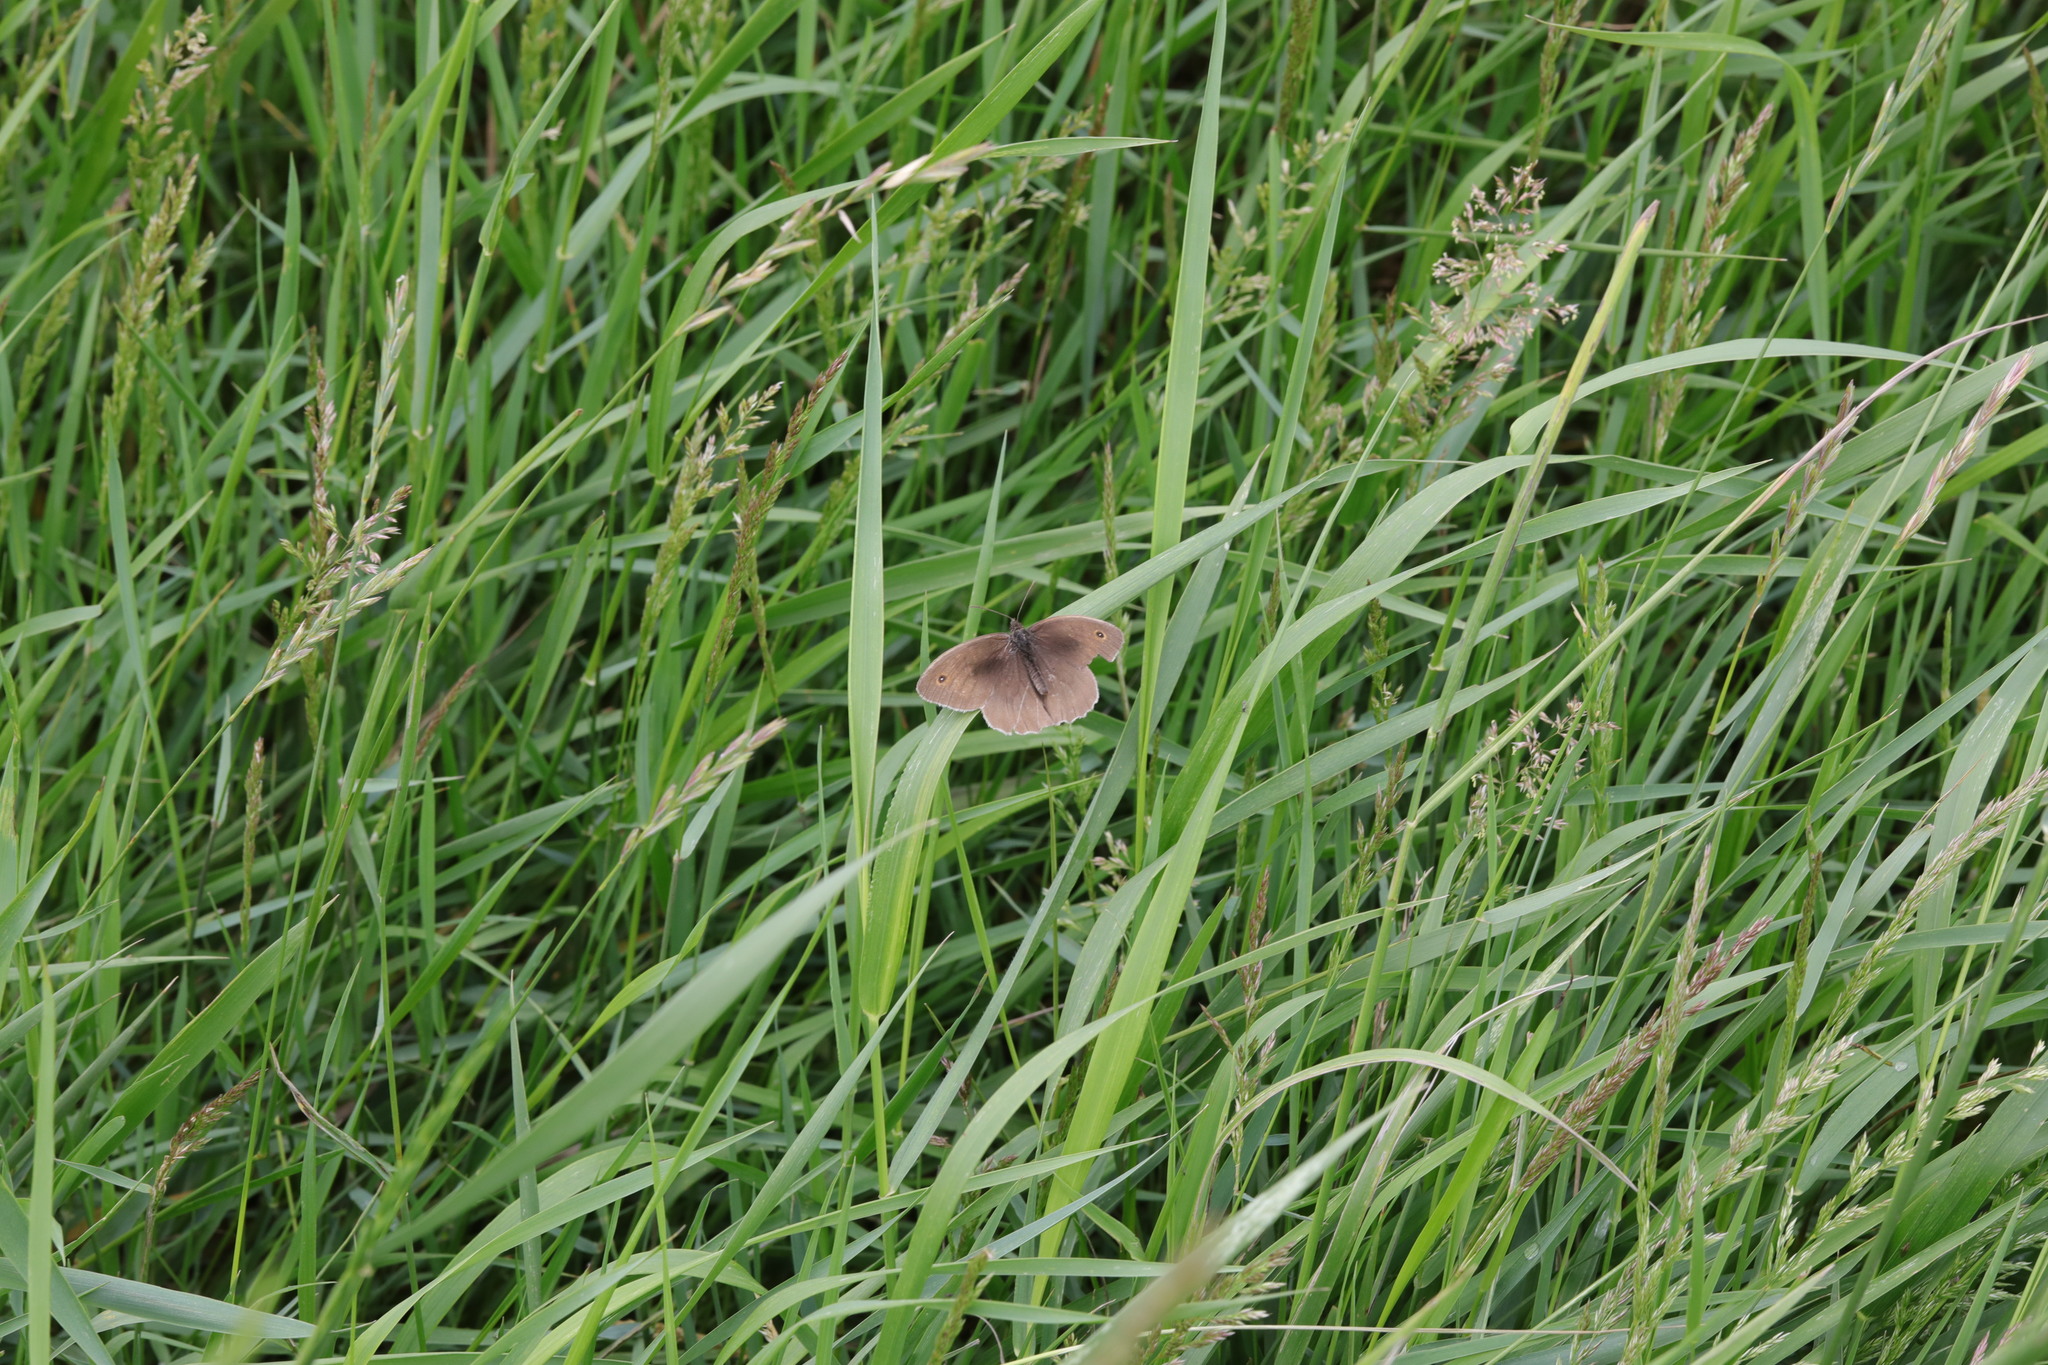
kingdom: Animalia
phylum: Arthropoda
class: Insecta
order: Lepidoptera
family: Nymphalidae
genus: Maniola
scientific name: Maniola jurtina
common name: Meadow brown
